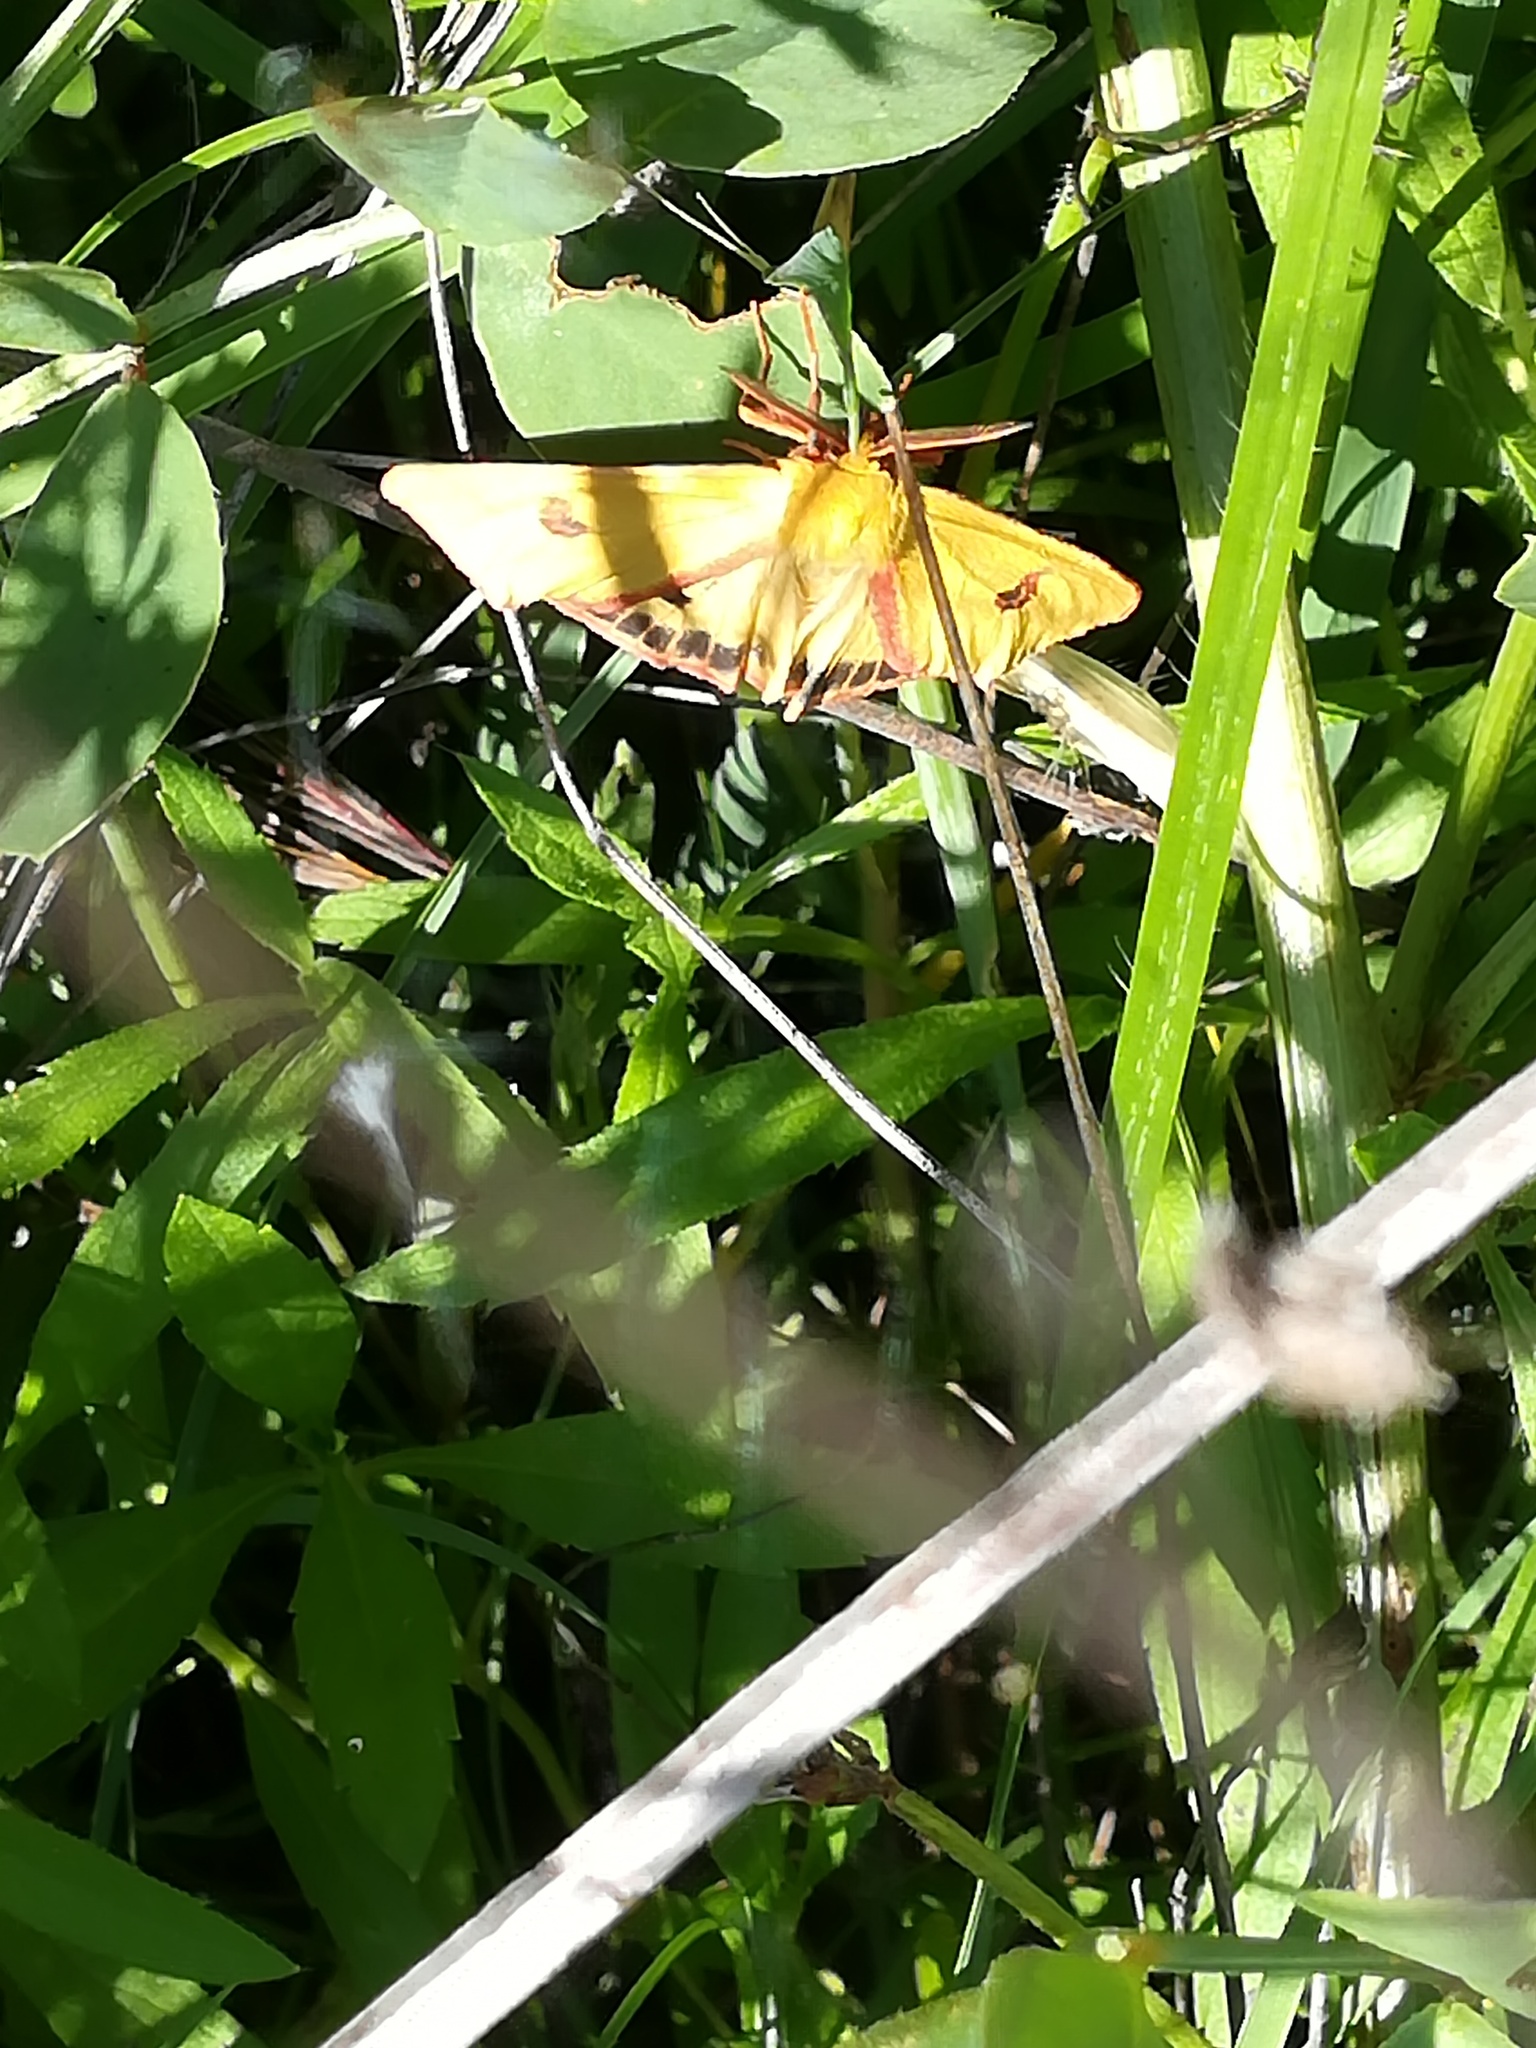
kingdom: Animalia
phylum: Arthropoda
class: Insecta
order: Lepidoptera
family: Erebidae
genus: Diacrisia
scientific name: Diacrisia sannio
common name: Clouded buff
